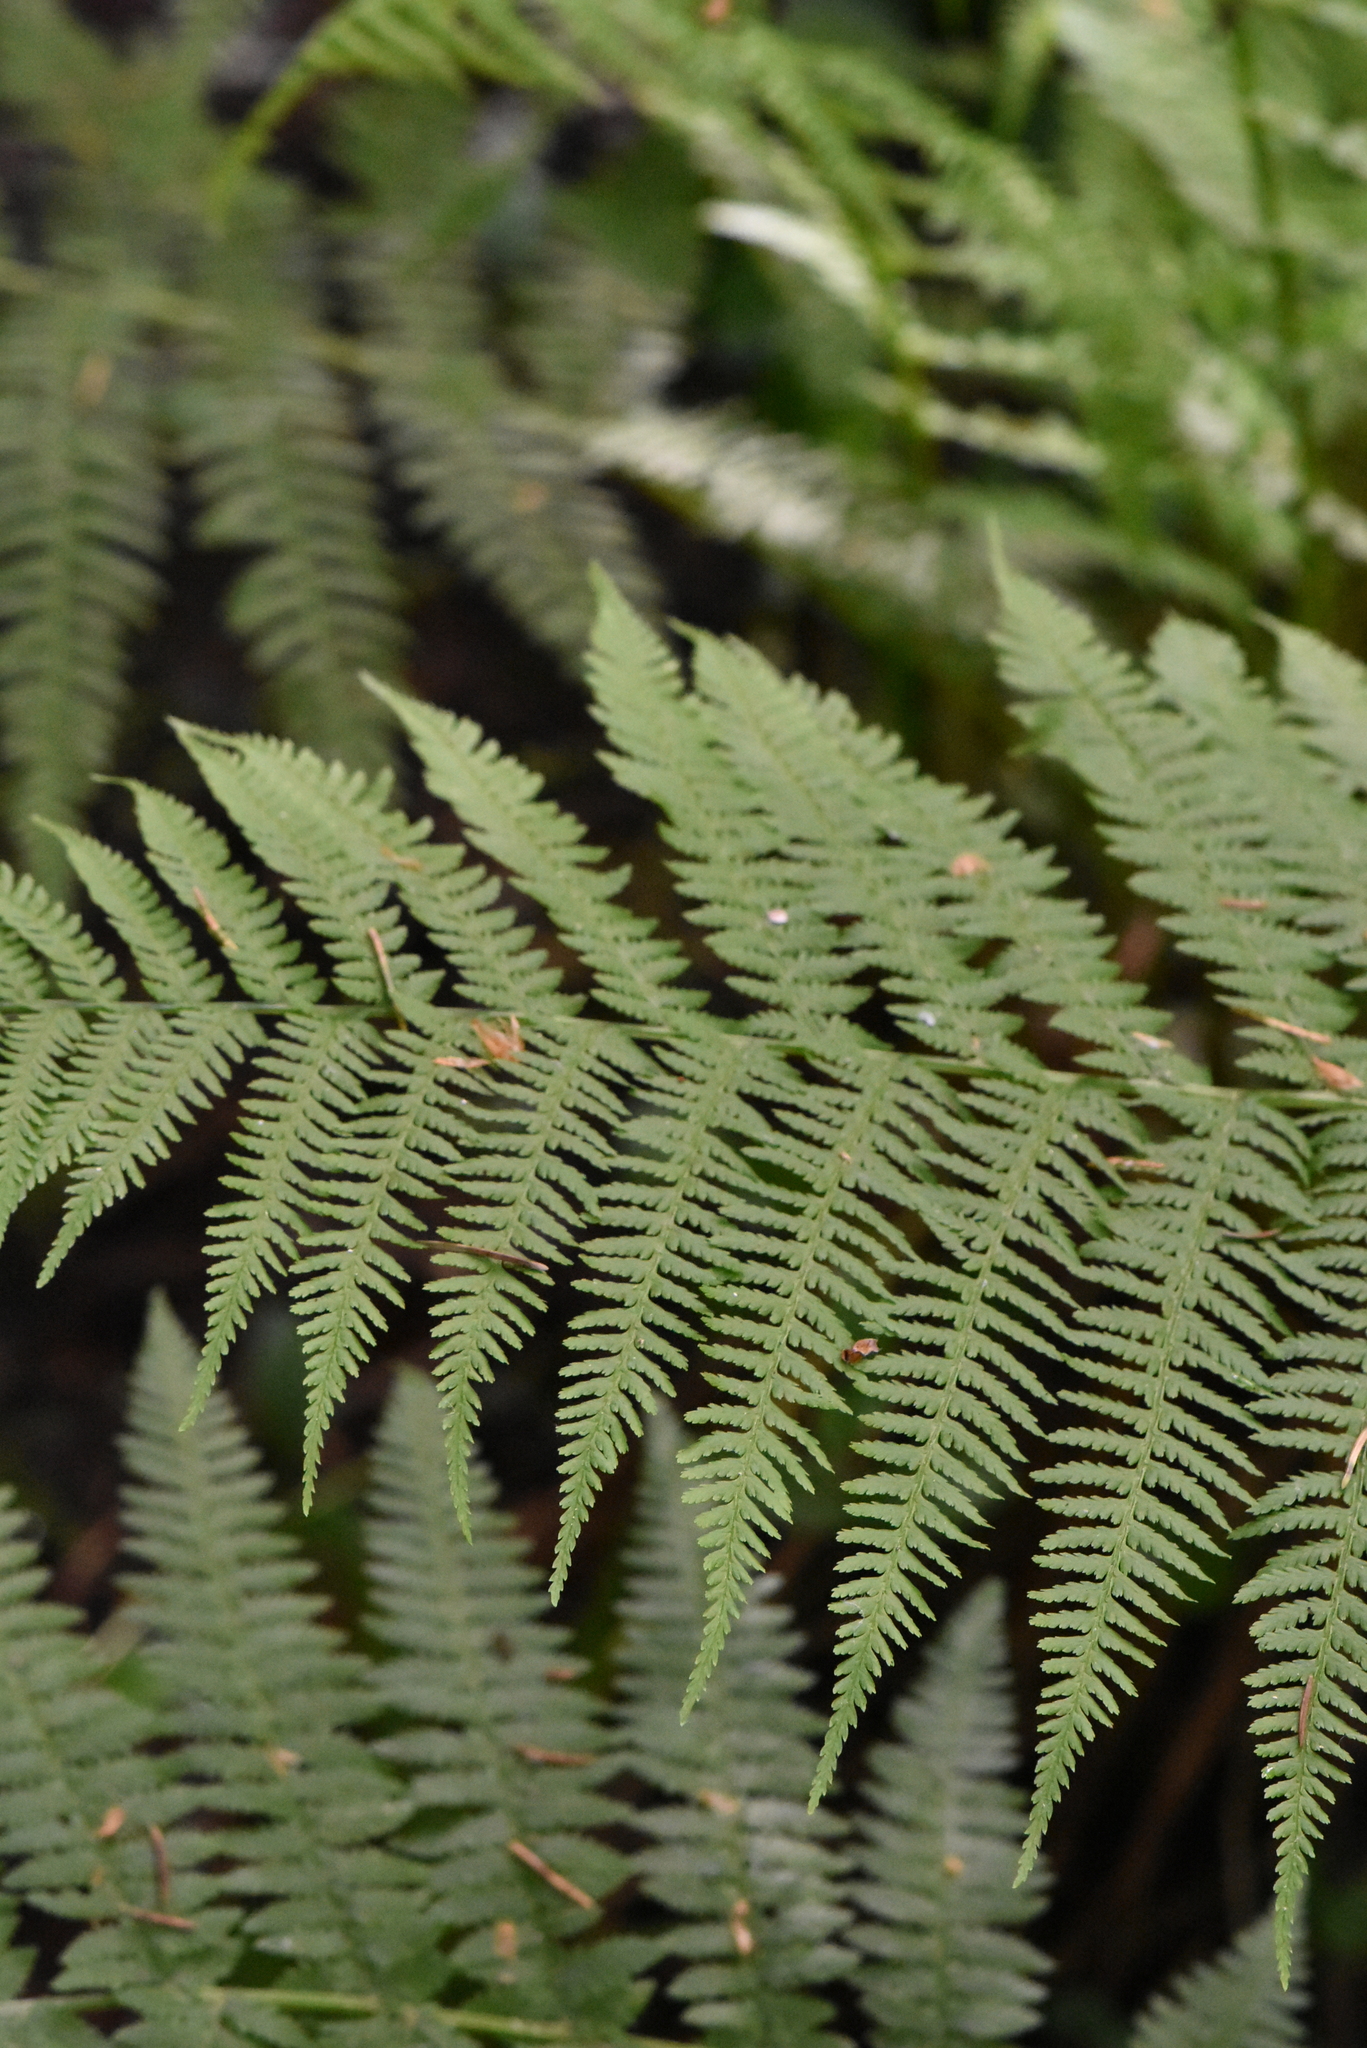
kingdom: Plantae
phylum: Tracheophyta
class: Polypodiopsida
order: Polypodiales
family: Athyriaceae
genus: Athyrium
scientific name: Athyrium filix-femina
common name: Lady fern
